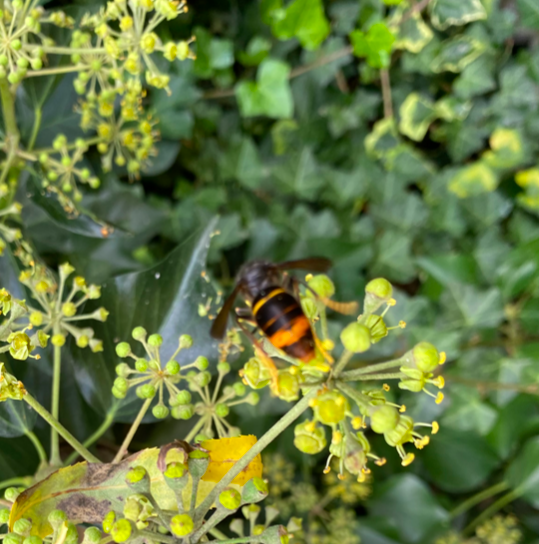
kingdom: Animalia
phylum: Arthropoda
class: Insecta
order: Hymenoptera
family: Vespidae
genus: Vespa
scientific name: Vespa velutina
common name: Asian hornet
